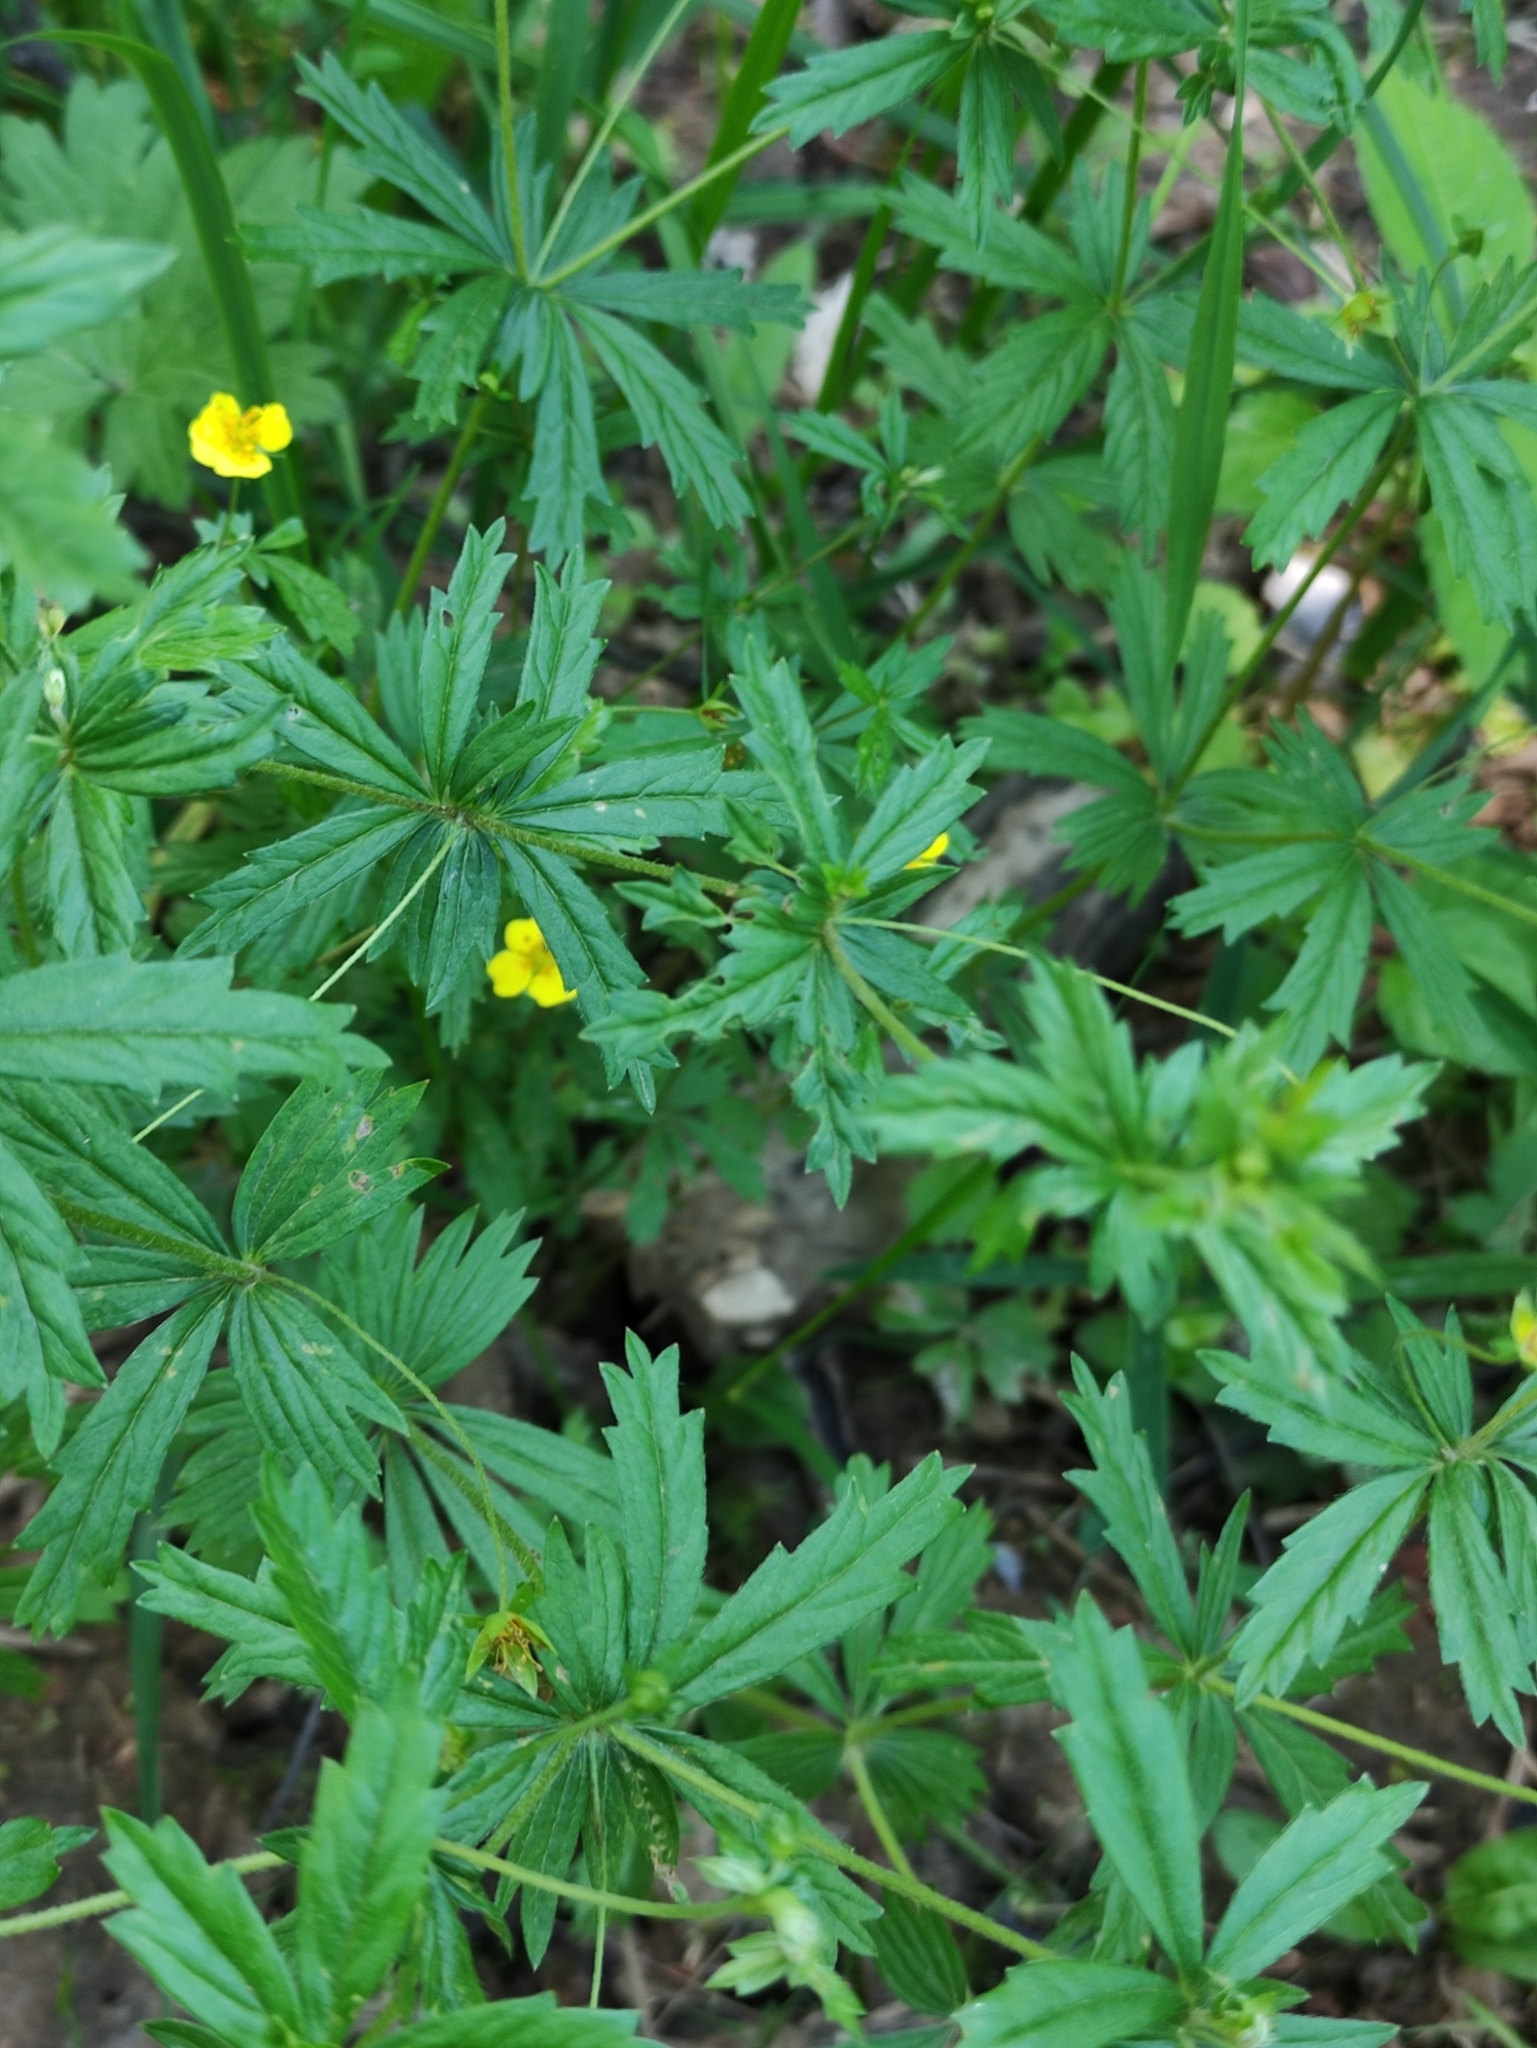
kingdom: Plantae
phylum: Tracheophyta
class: Magnoliopsida
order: Rosales
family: Rosaceae
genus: Potentilla
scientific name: Potentilla erecta
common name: Tormentil
